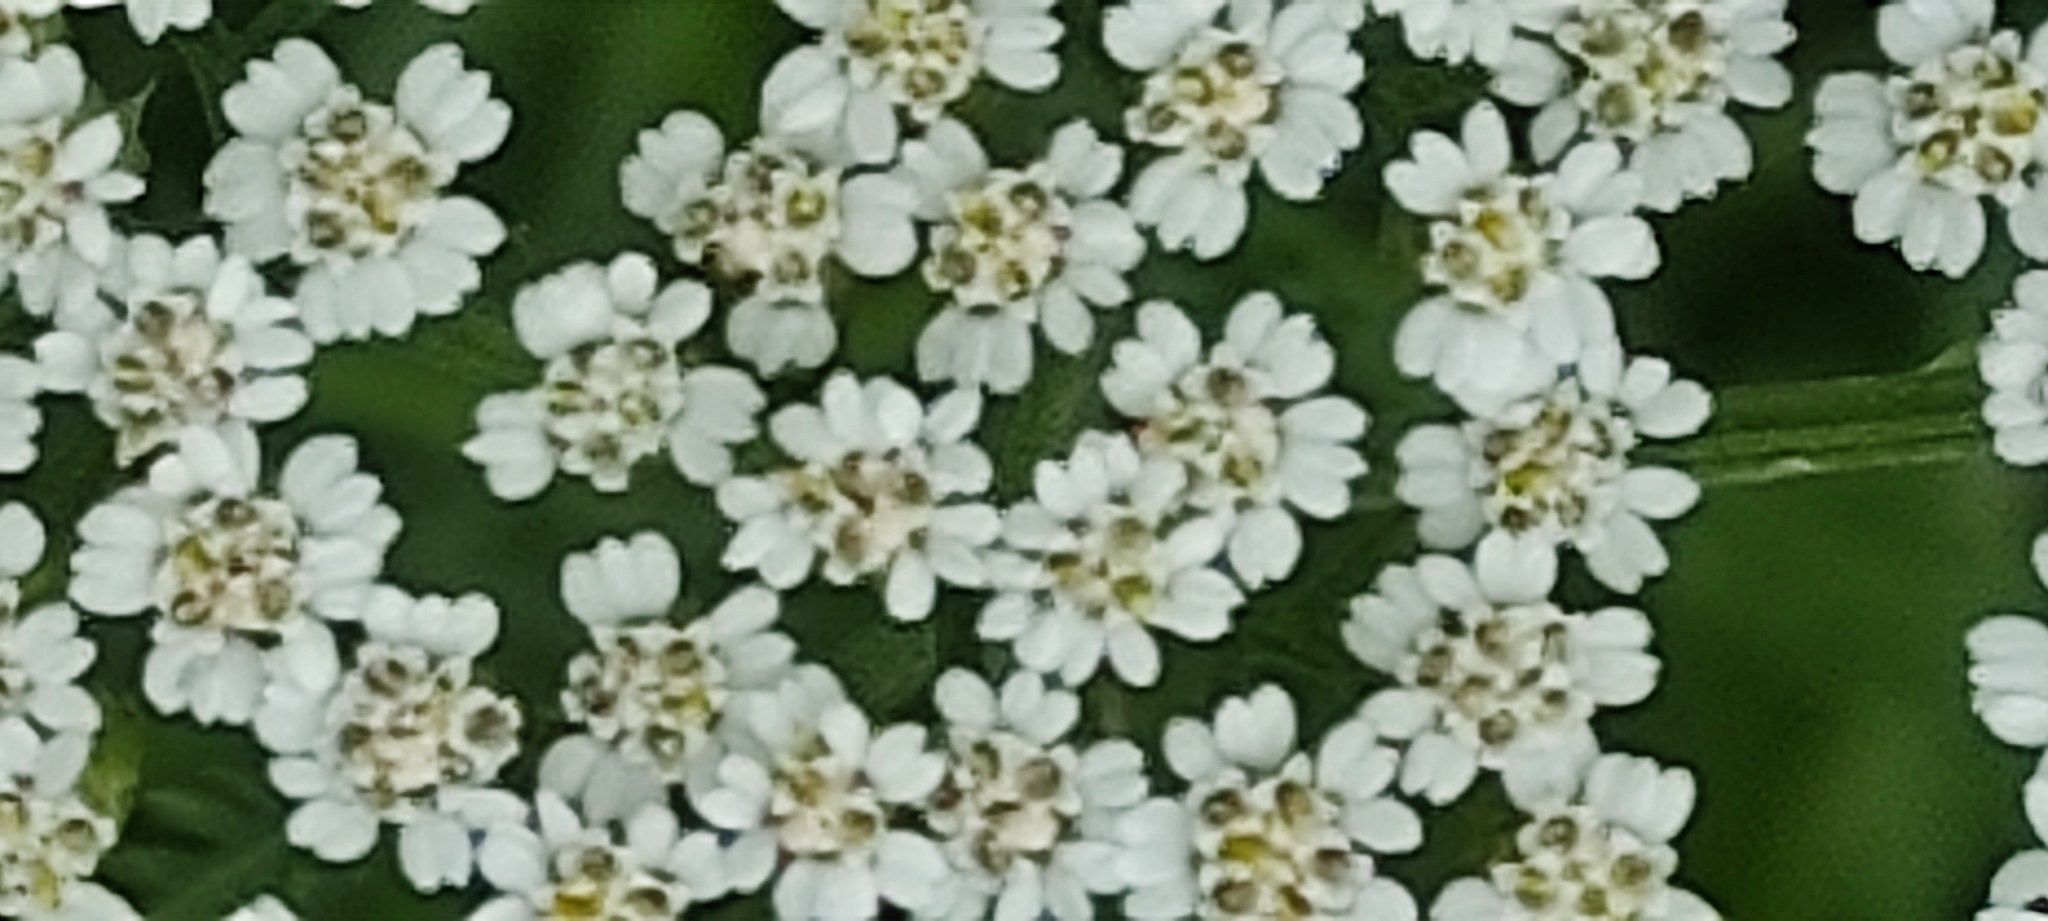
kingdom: Plantae
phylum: Tracheophyta
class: Magnoliopsida
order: Asterales
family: Asteraceae
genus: Achillea
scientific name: Achillea millefolium
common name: Yarrow
